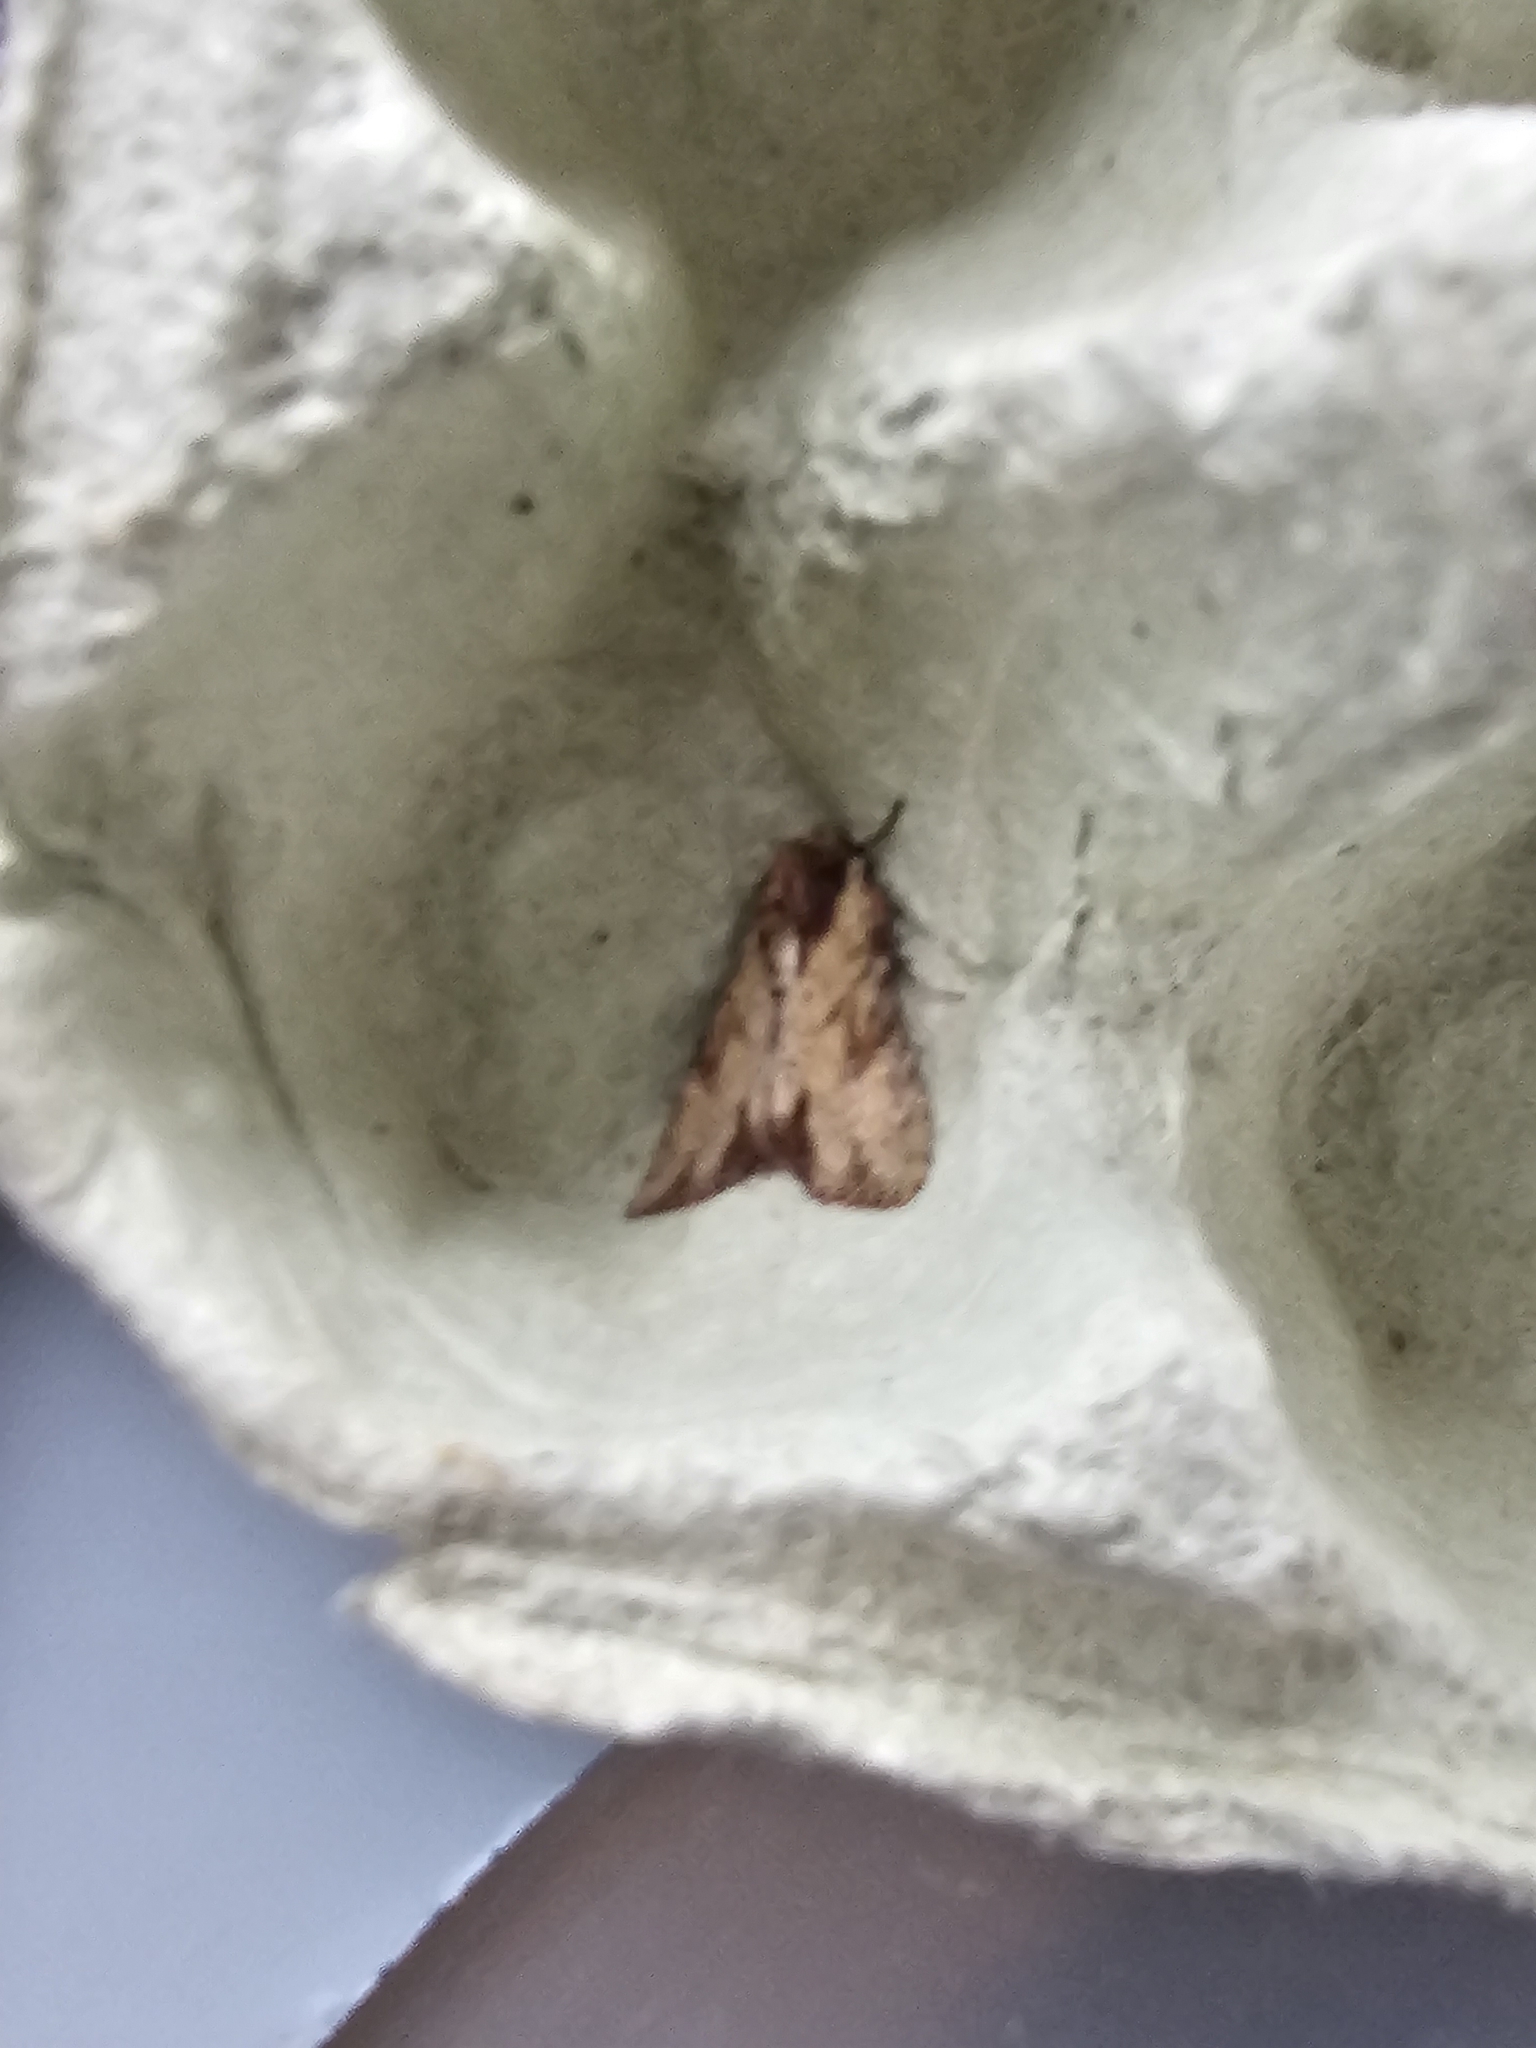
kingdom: Animalia
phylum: Arthropoda
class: Insecta
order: Lepidoptera
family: Noctuidae
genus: Apamea
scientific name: Apamea crenata
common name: Clouded-bordered brindle
